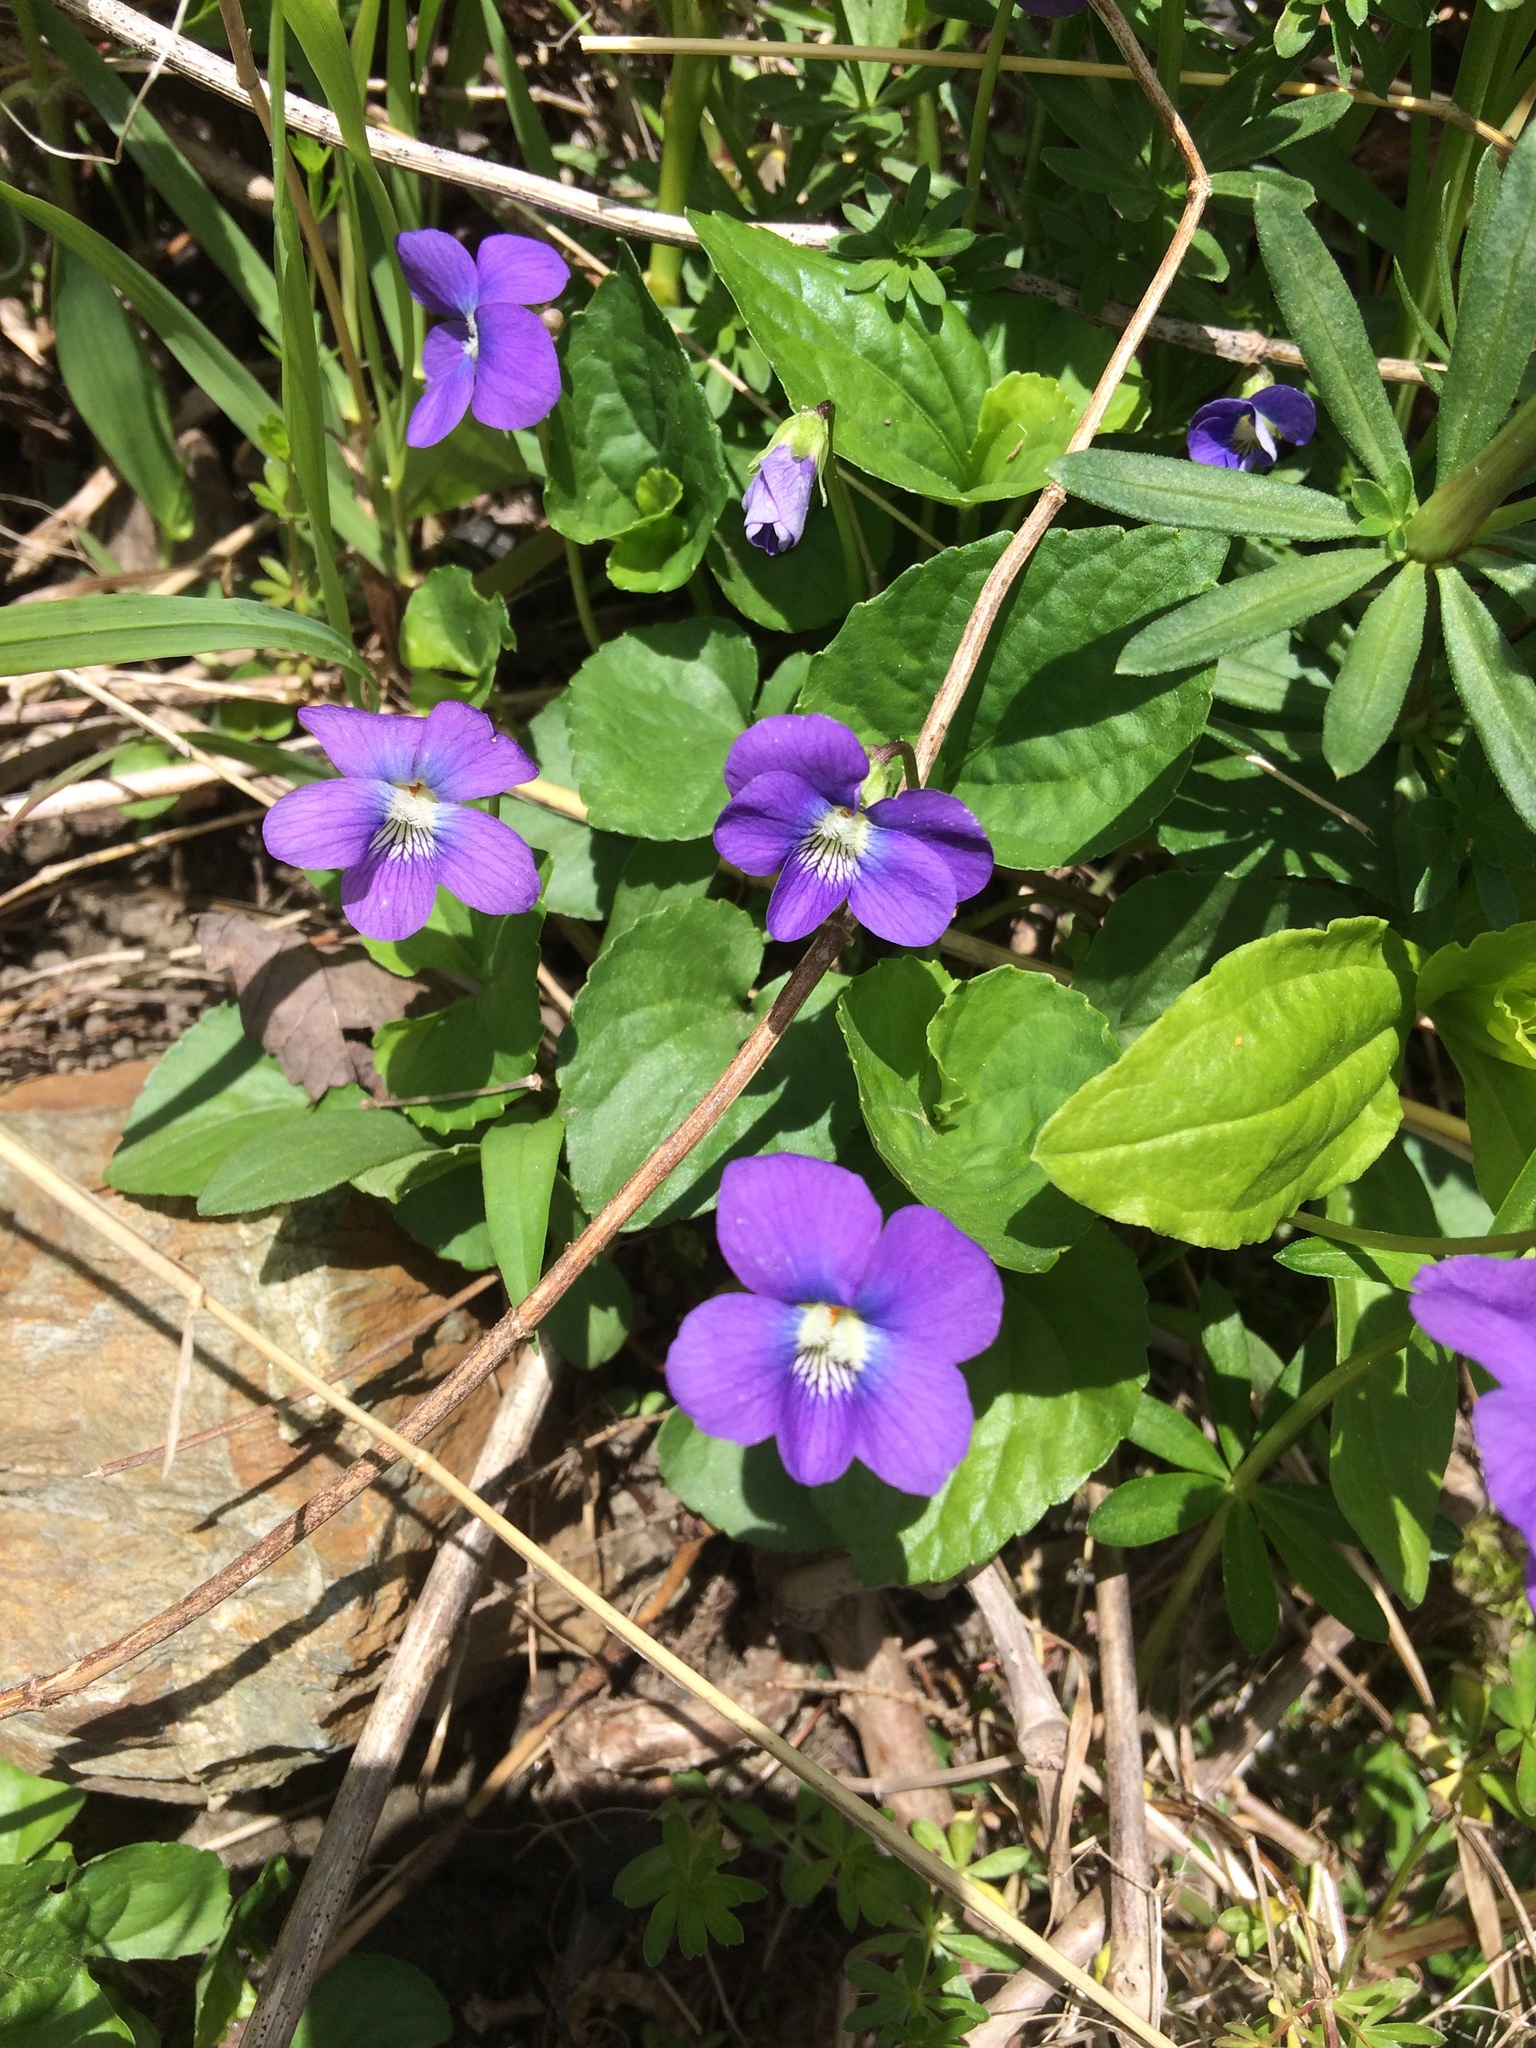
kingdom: Plantae
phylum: Tracheophyta
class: Magnoliopsida
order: Malpighiales
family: Violaceae
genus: Viola
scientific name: Viola sororia
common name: Dooryard violet
